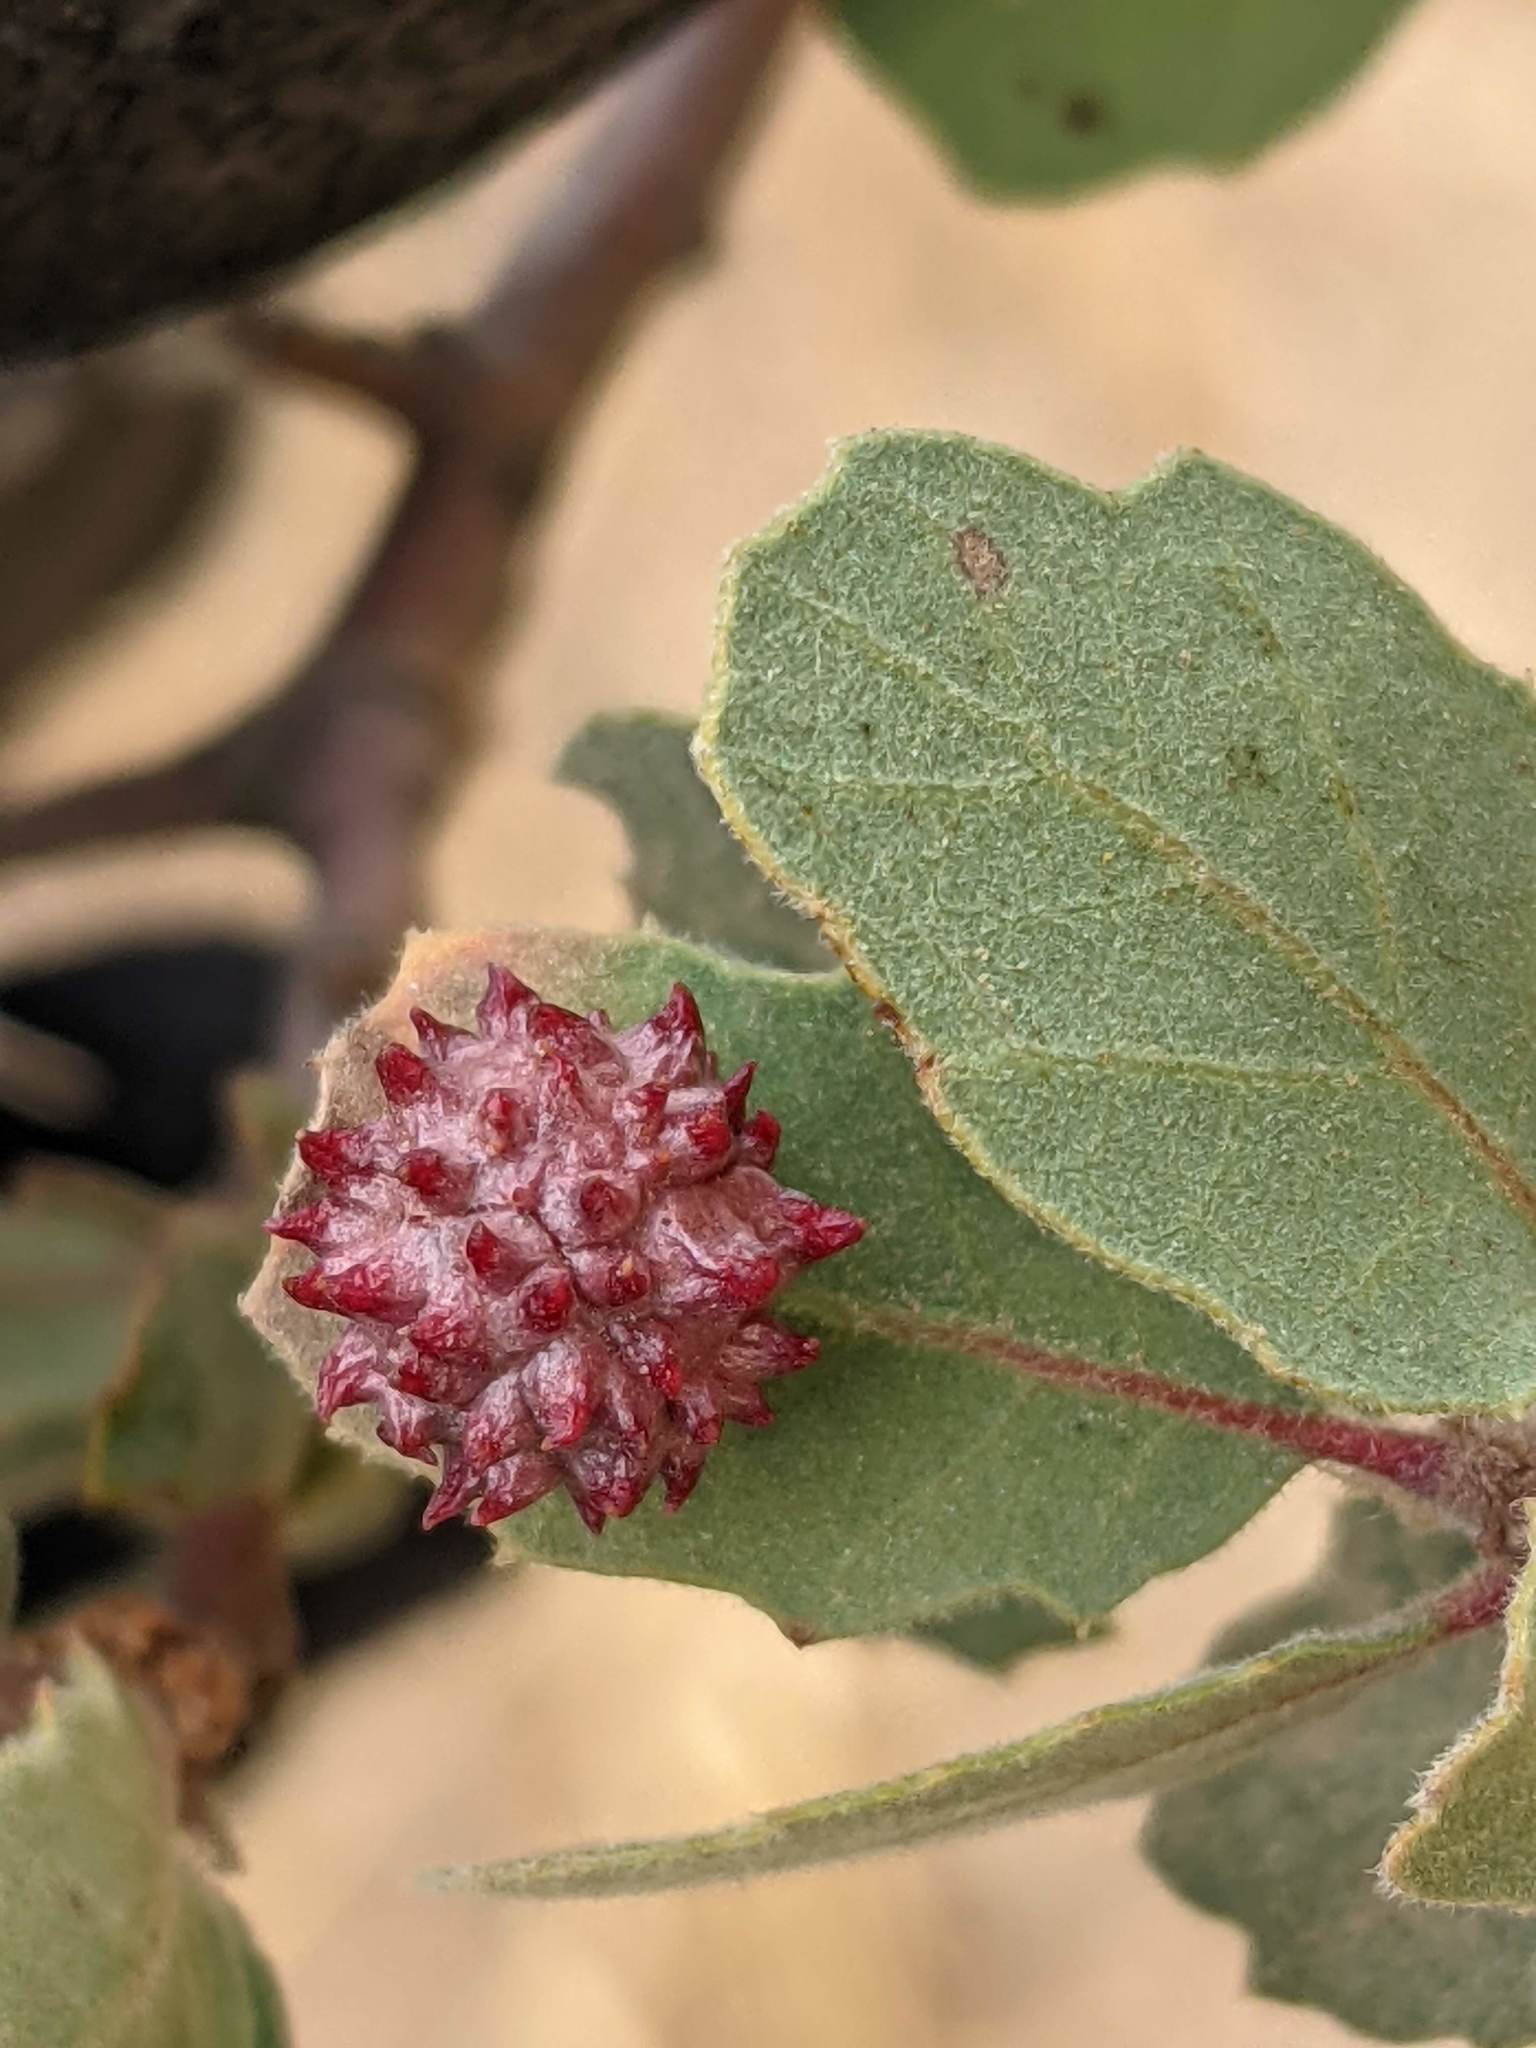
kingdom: Animalia
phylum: Arthropoda
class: Insecta
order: Hymenoptera
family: Cynipidae
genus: Cynips
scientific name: Cynips
